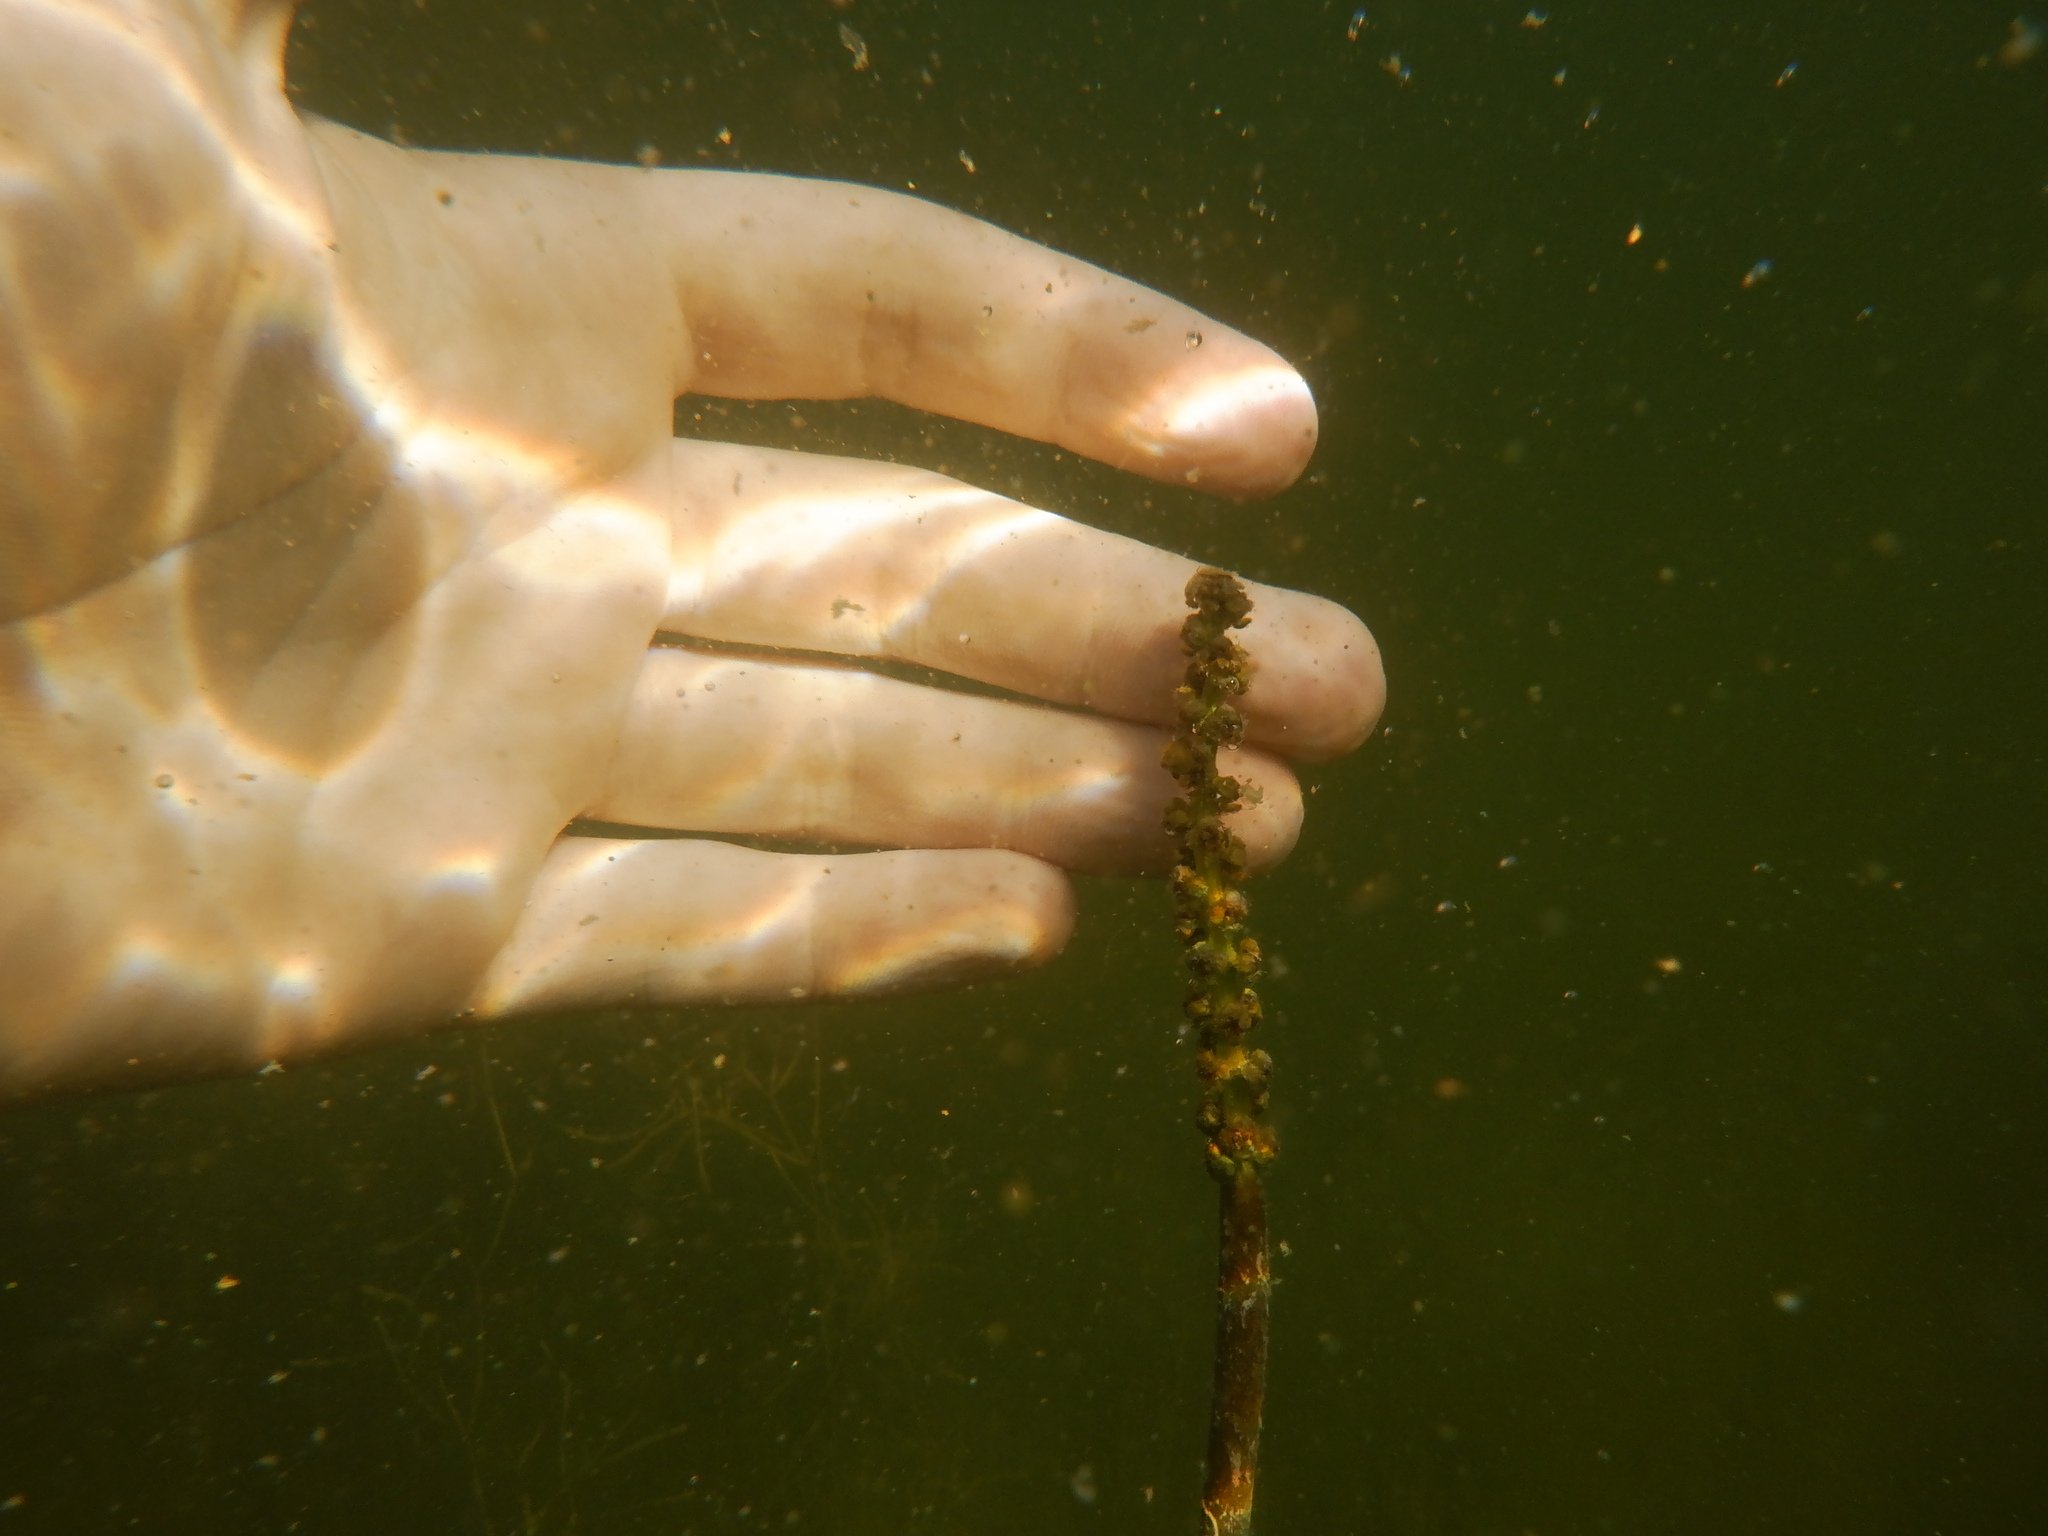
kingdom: Plantae
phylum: Tracheophyta
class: Liliopsida
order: Alismatales
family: Potamogetonaceae
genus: Potamogeton
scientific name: Potamogeton amplifolius
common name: Broad-leaved pondweed
